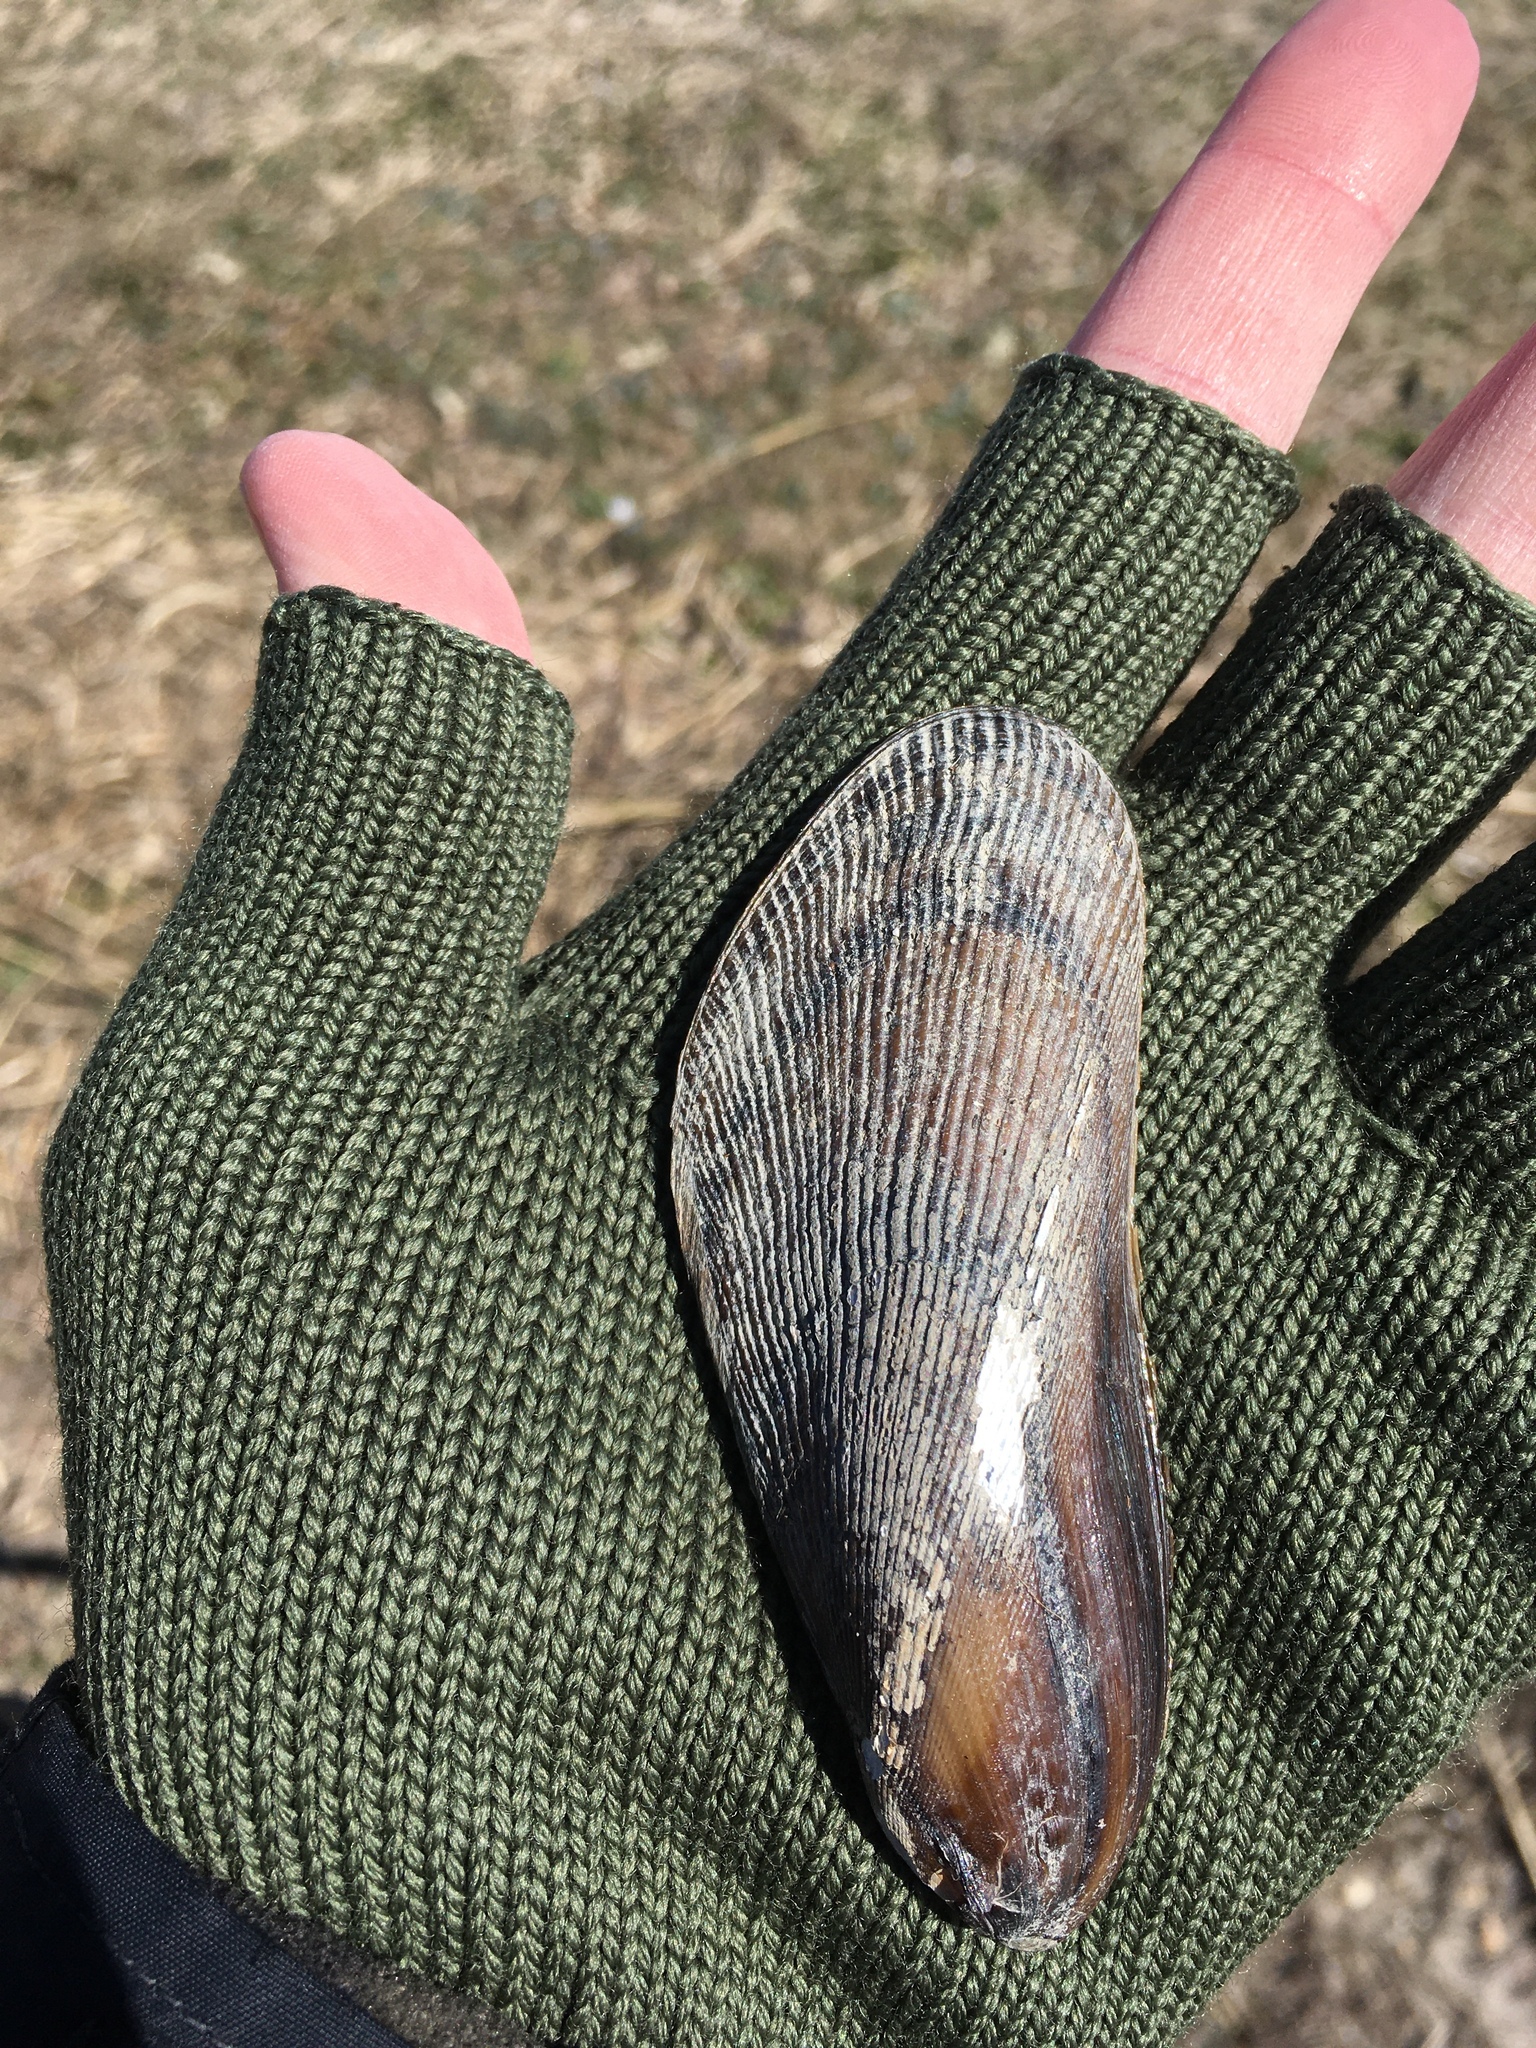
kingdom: Animalia
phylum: Mollusca
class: Bivalvia
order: Mytilida
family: Mytilidae
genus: Geukensia
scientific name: Geukensia demissa
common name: Ribbed mussel
